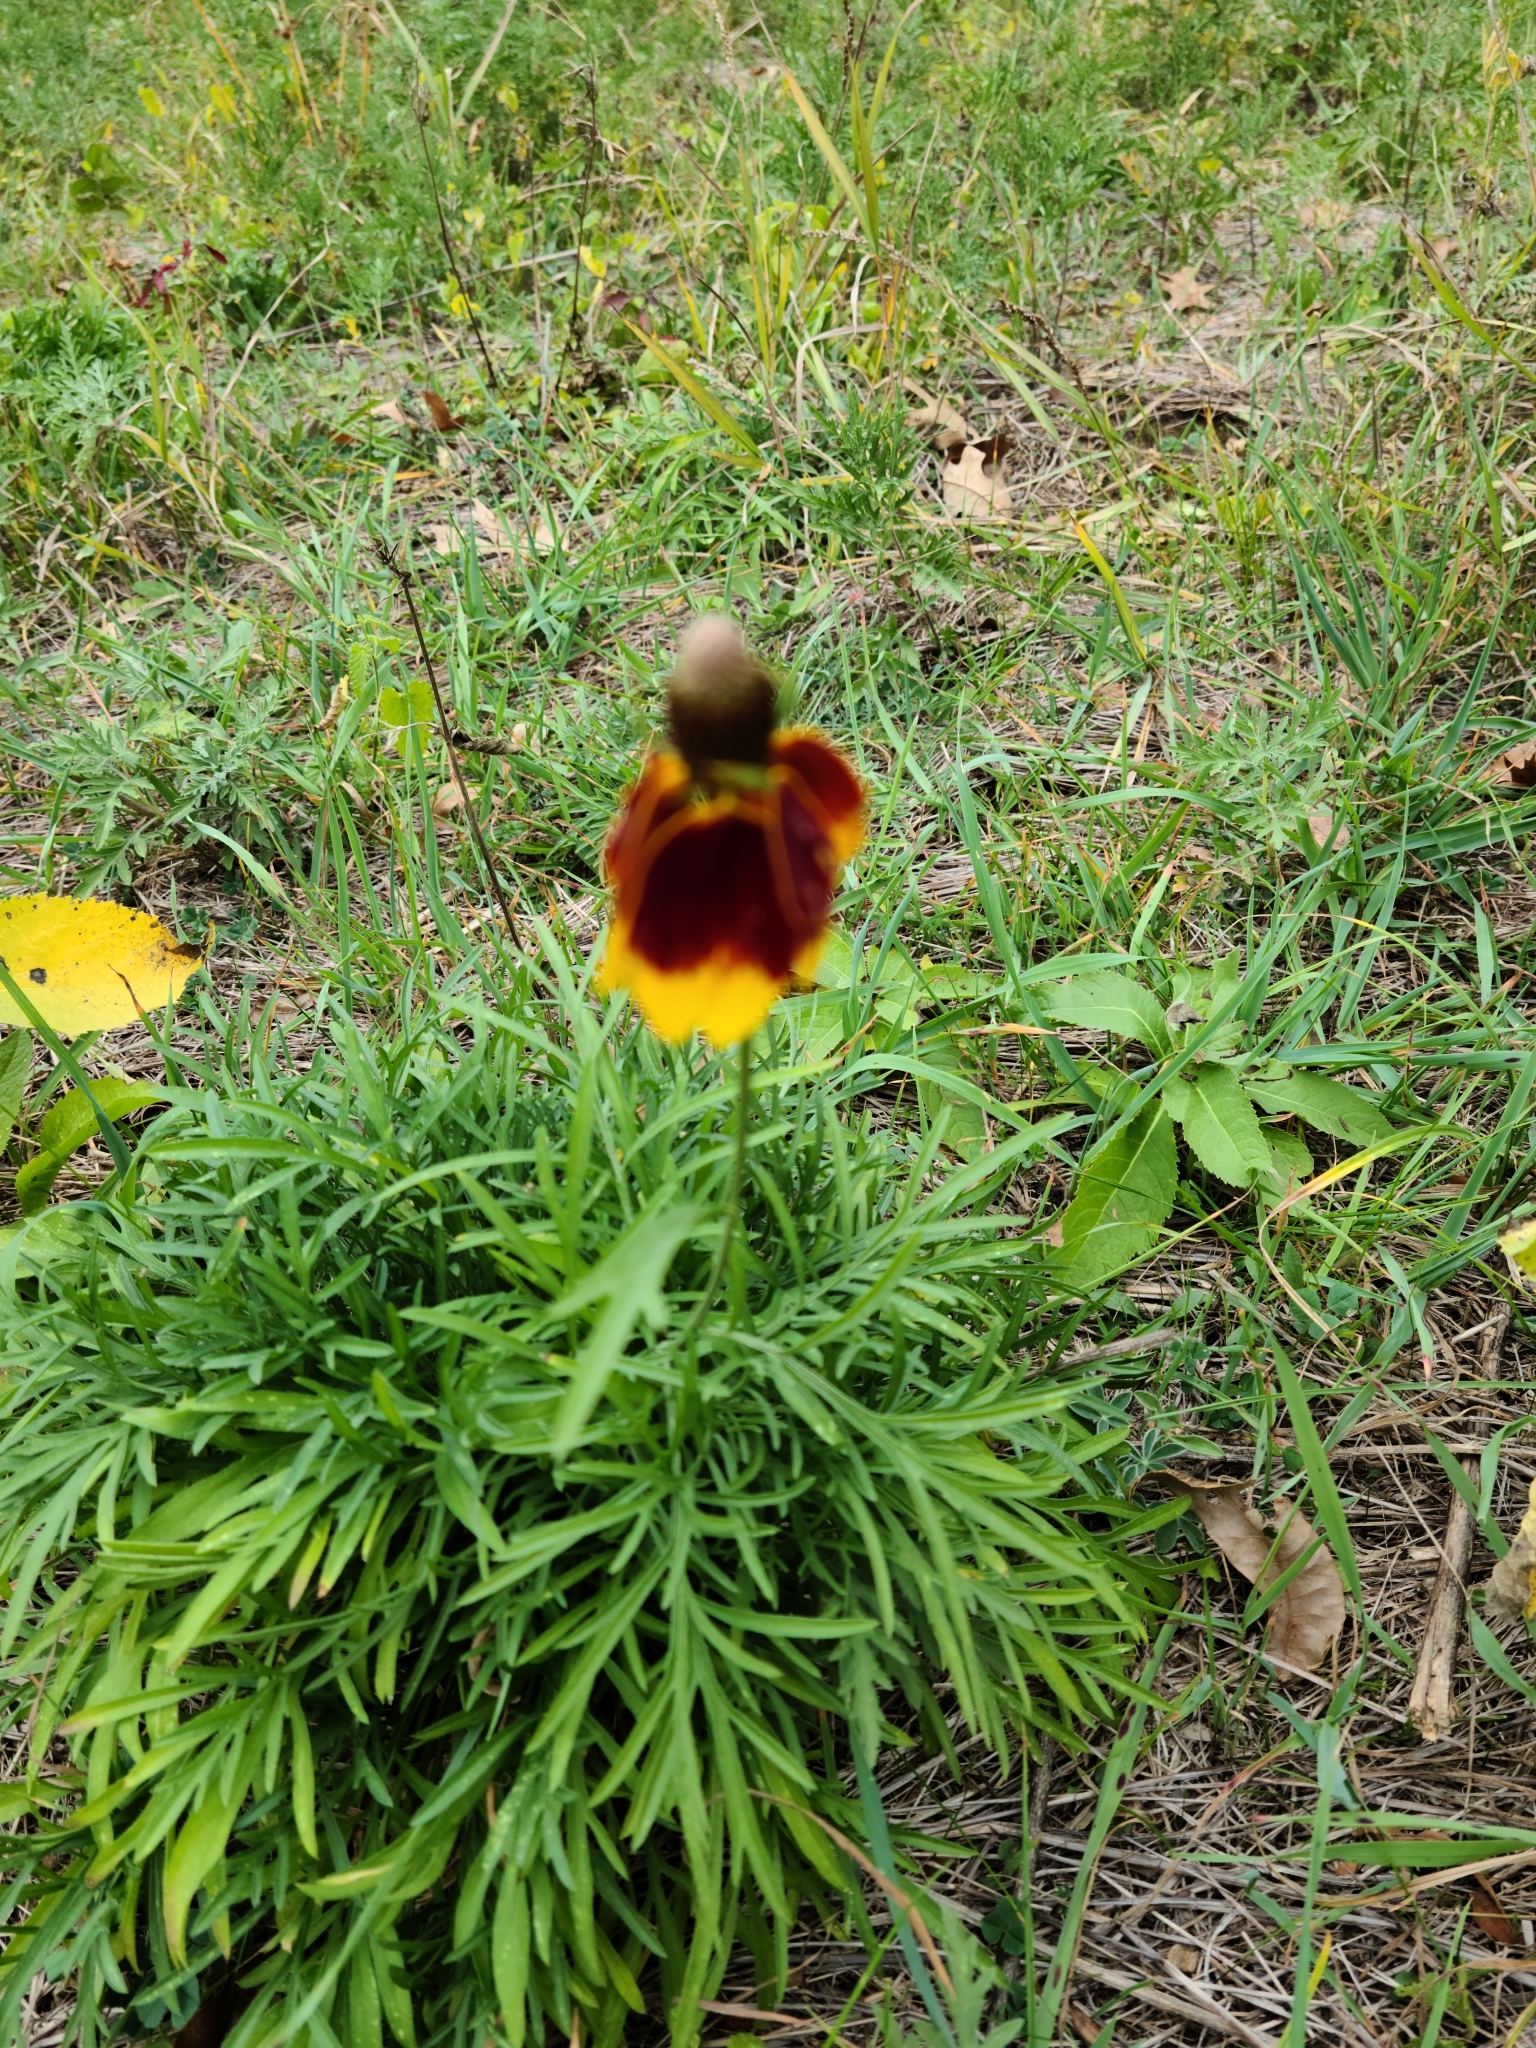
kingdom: Plantae
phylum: Tracheophyta
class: Magnoliopsida
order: Asterales
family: Asteraceae
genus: Ratibida
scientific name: Ratibida columnifera
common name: Prairie coneflower
